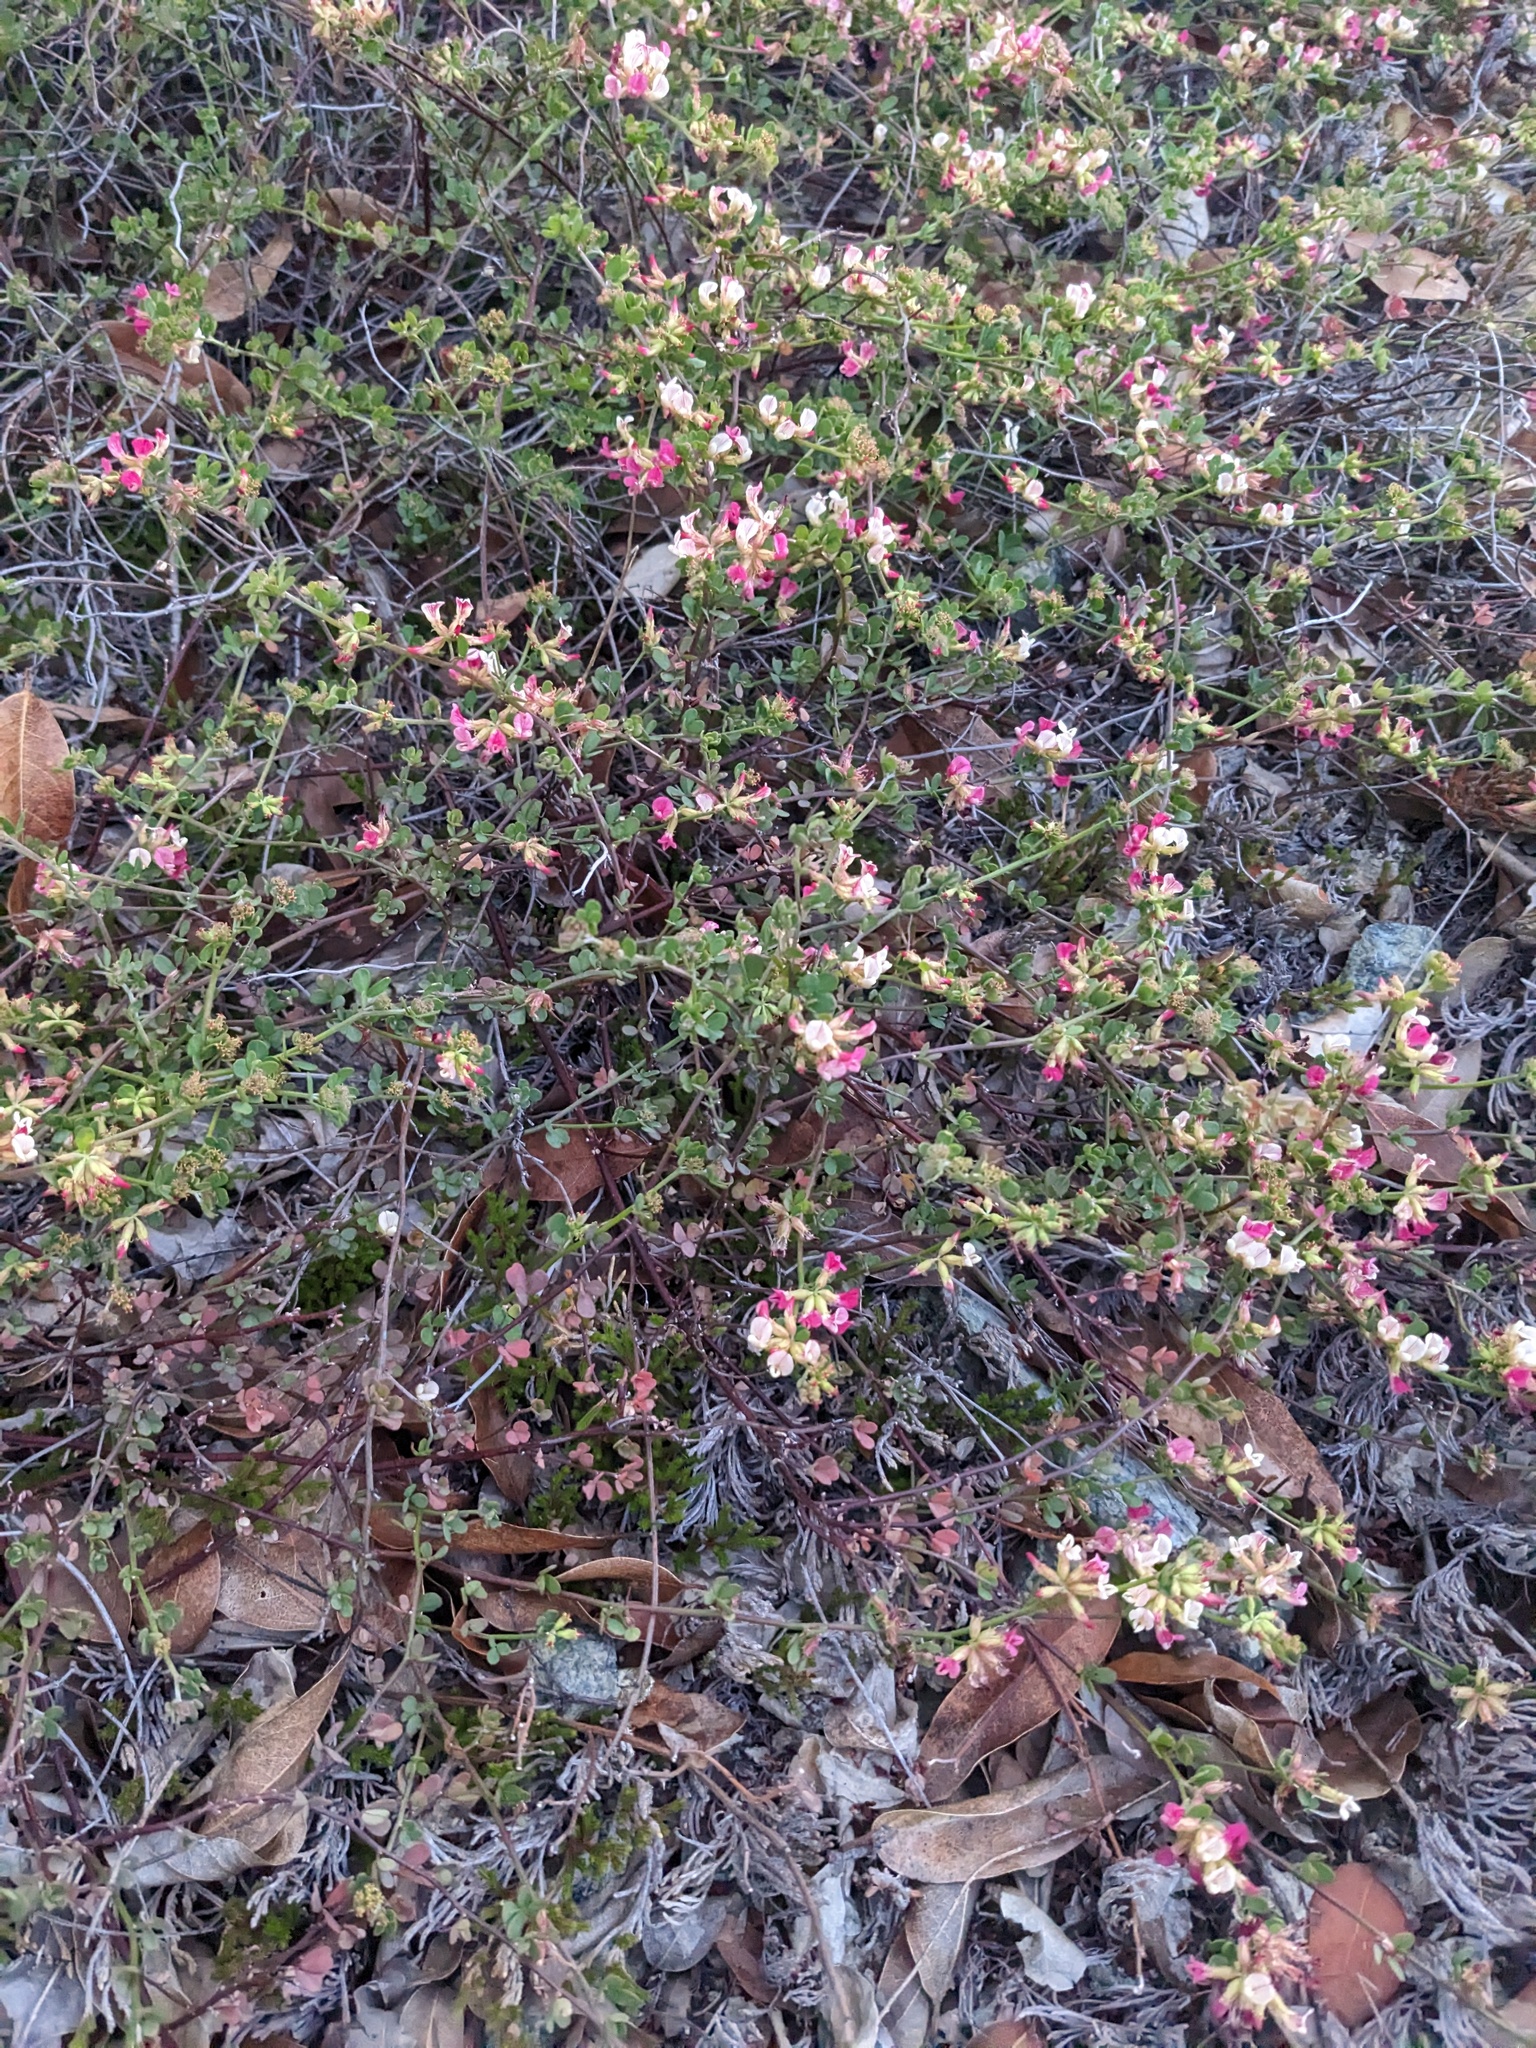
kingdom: Plantae
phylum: Tracheophyta
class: Magnoliopsida
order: Fabales
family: Fabaceae
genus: Acmispon
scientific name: Acmispon cytisoides
